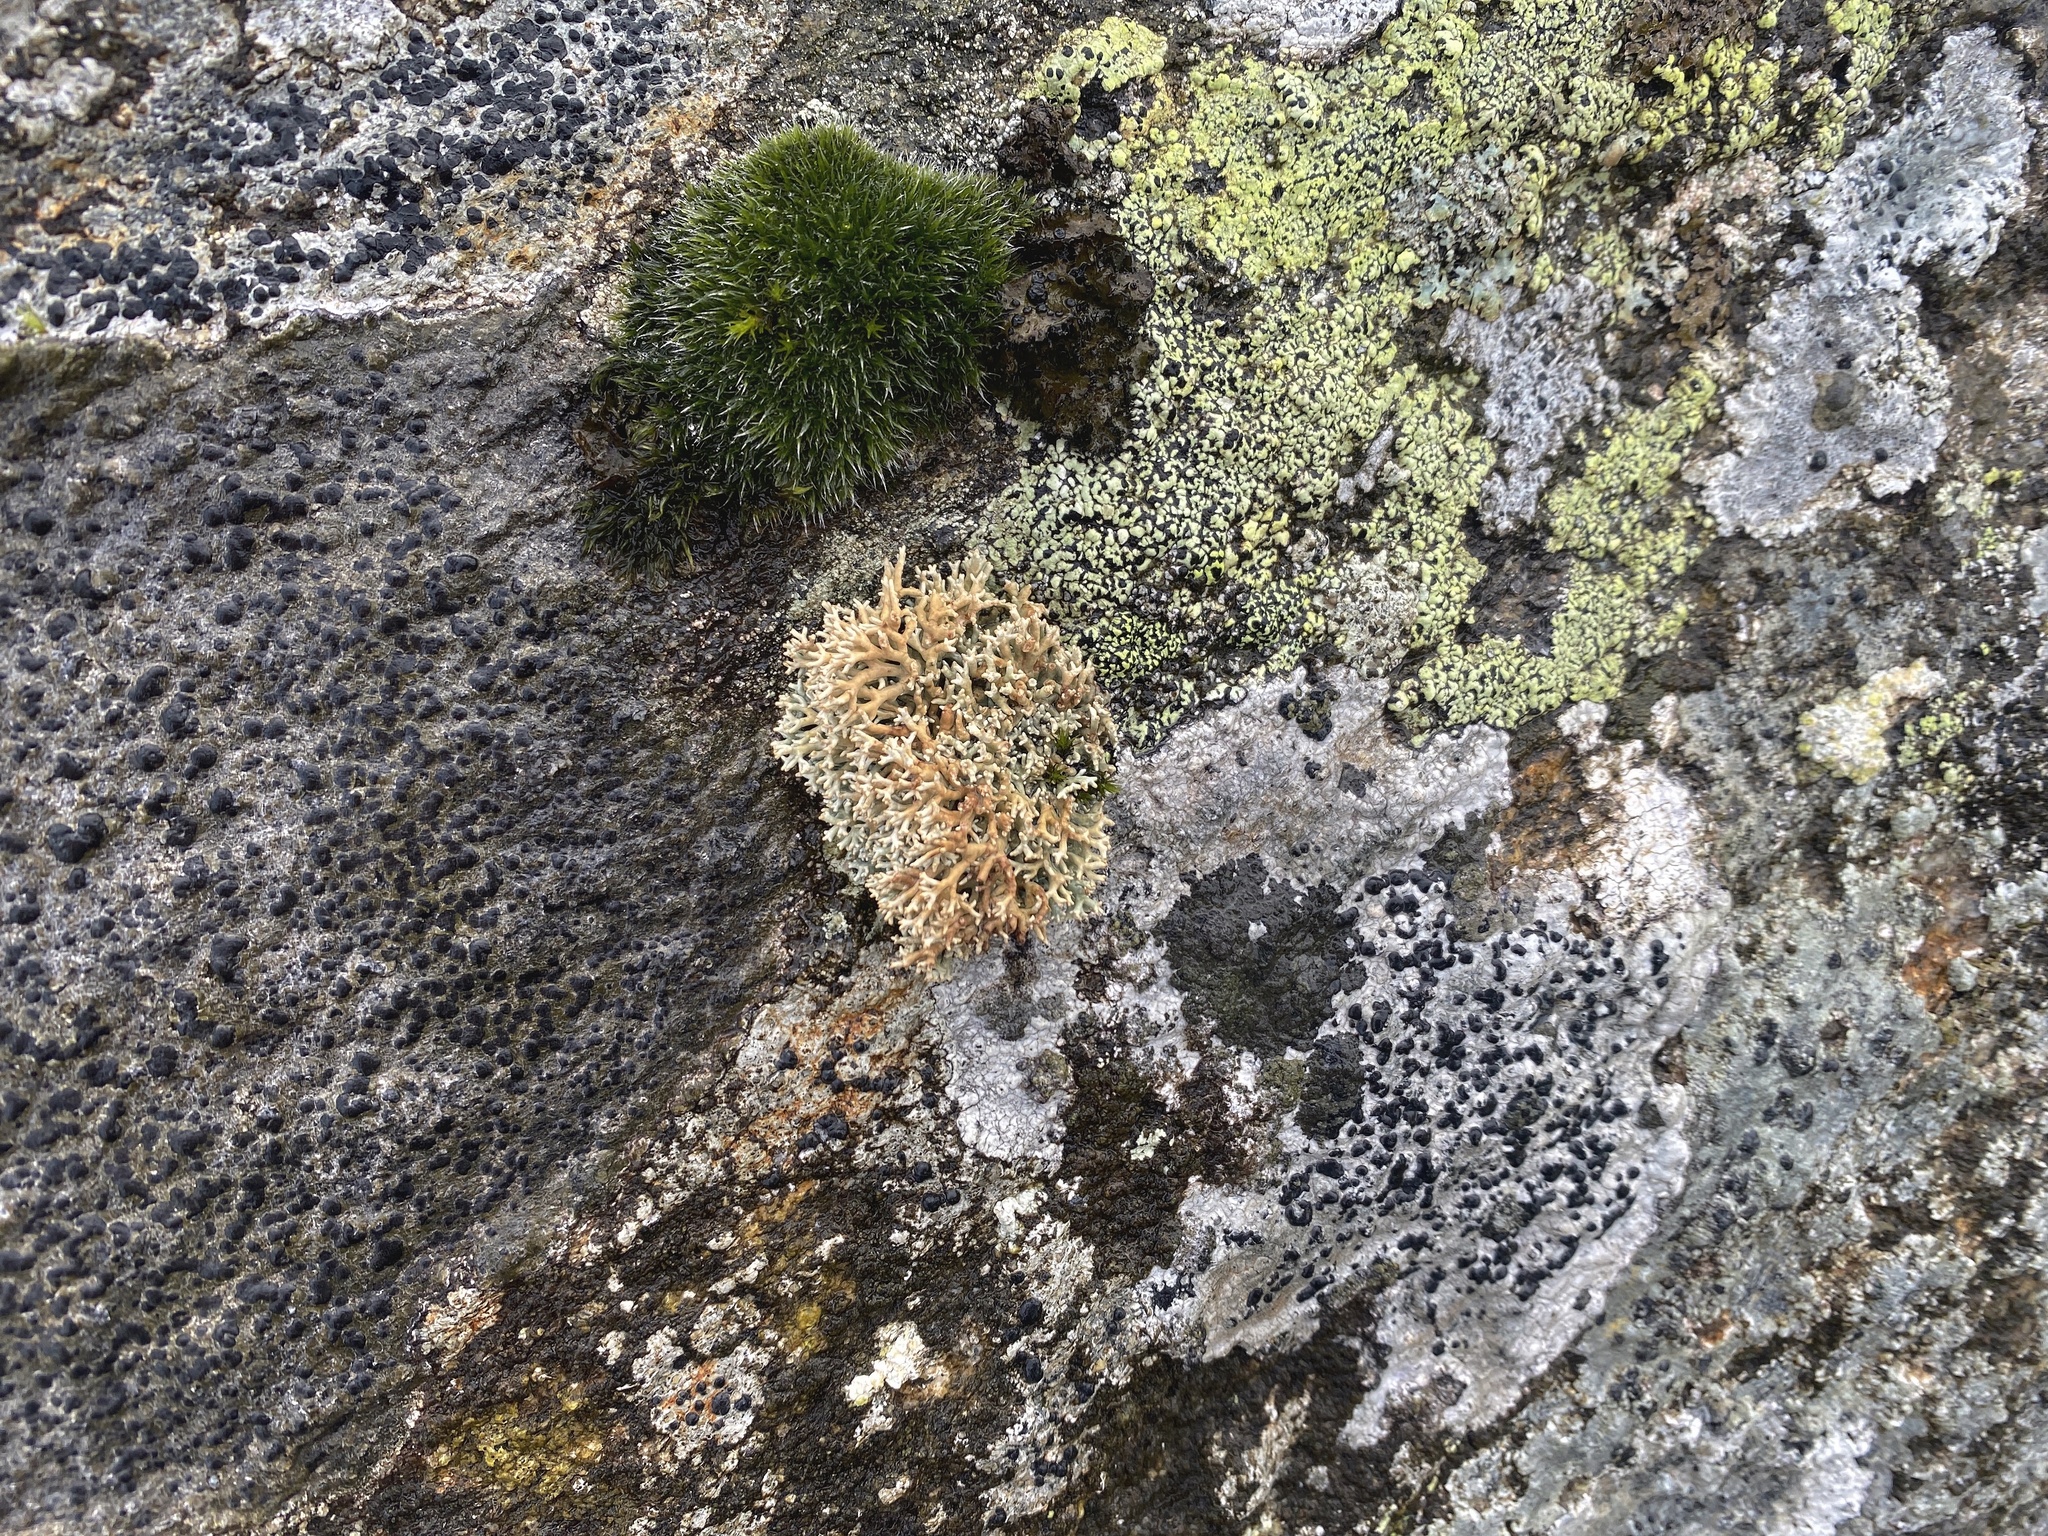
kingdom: Fungi
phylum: Ascomycota
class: Lecanoromycetes
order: Lecanorales
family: Sphaerophoraceae
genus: Sphaerophorus
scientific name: Sphaerophorus fragilis
